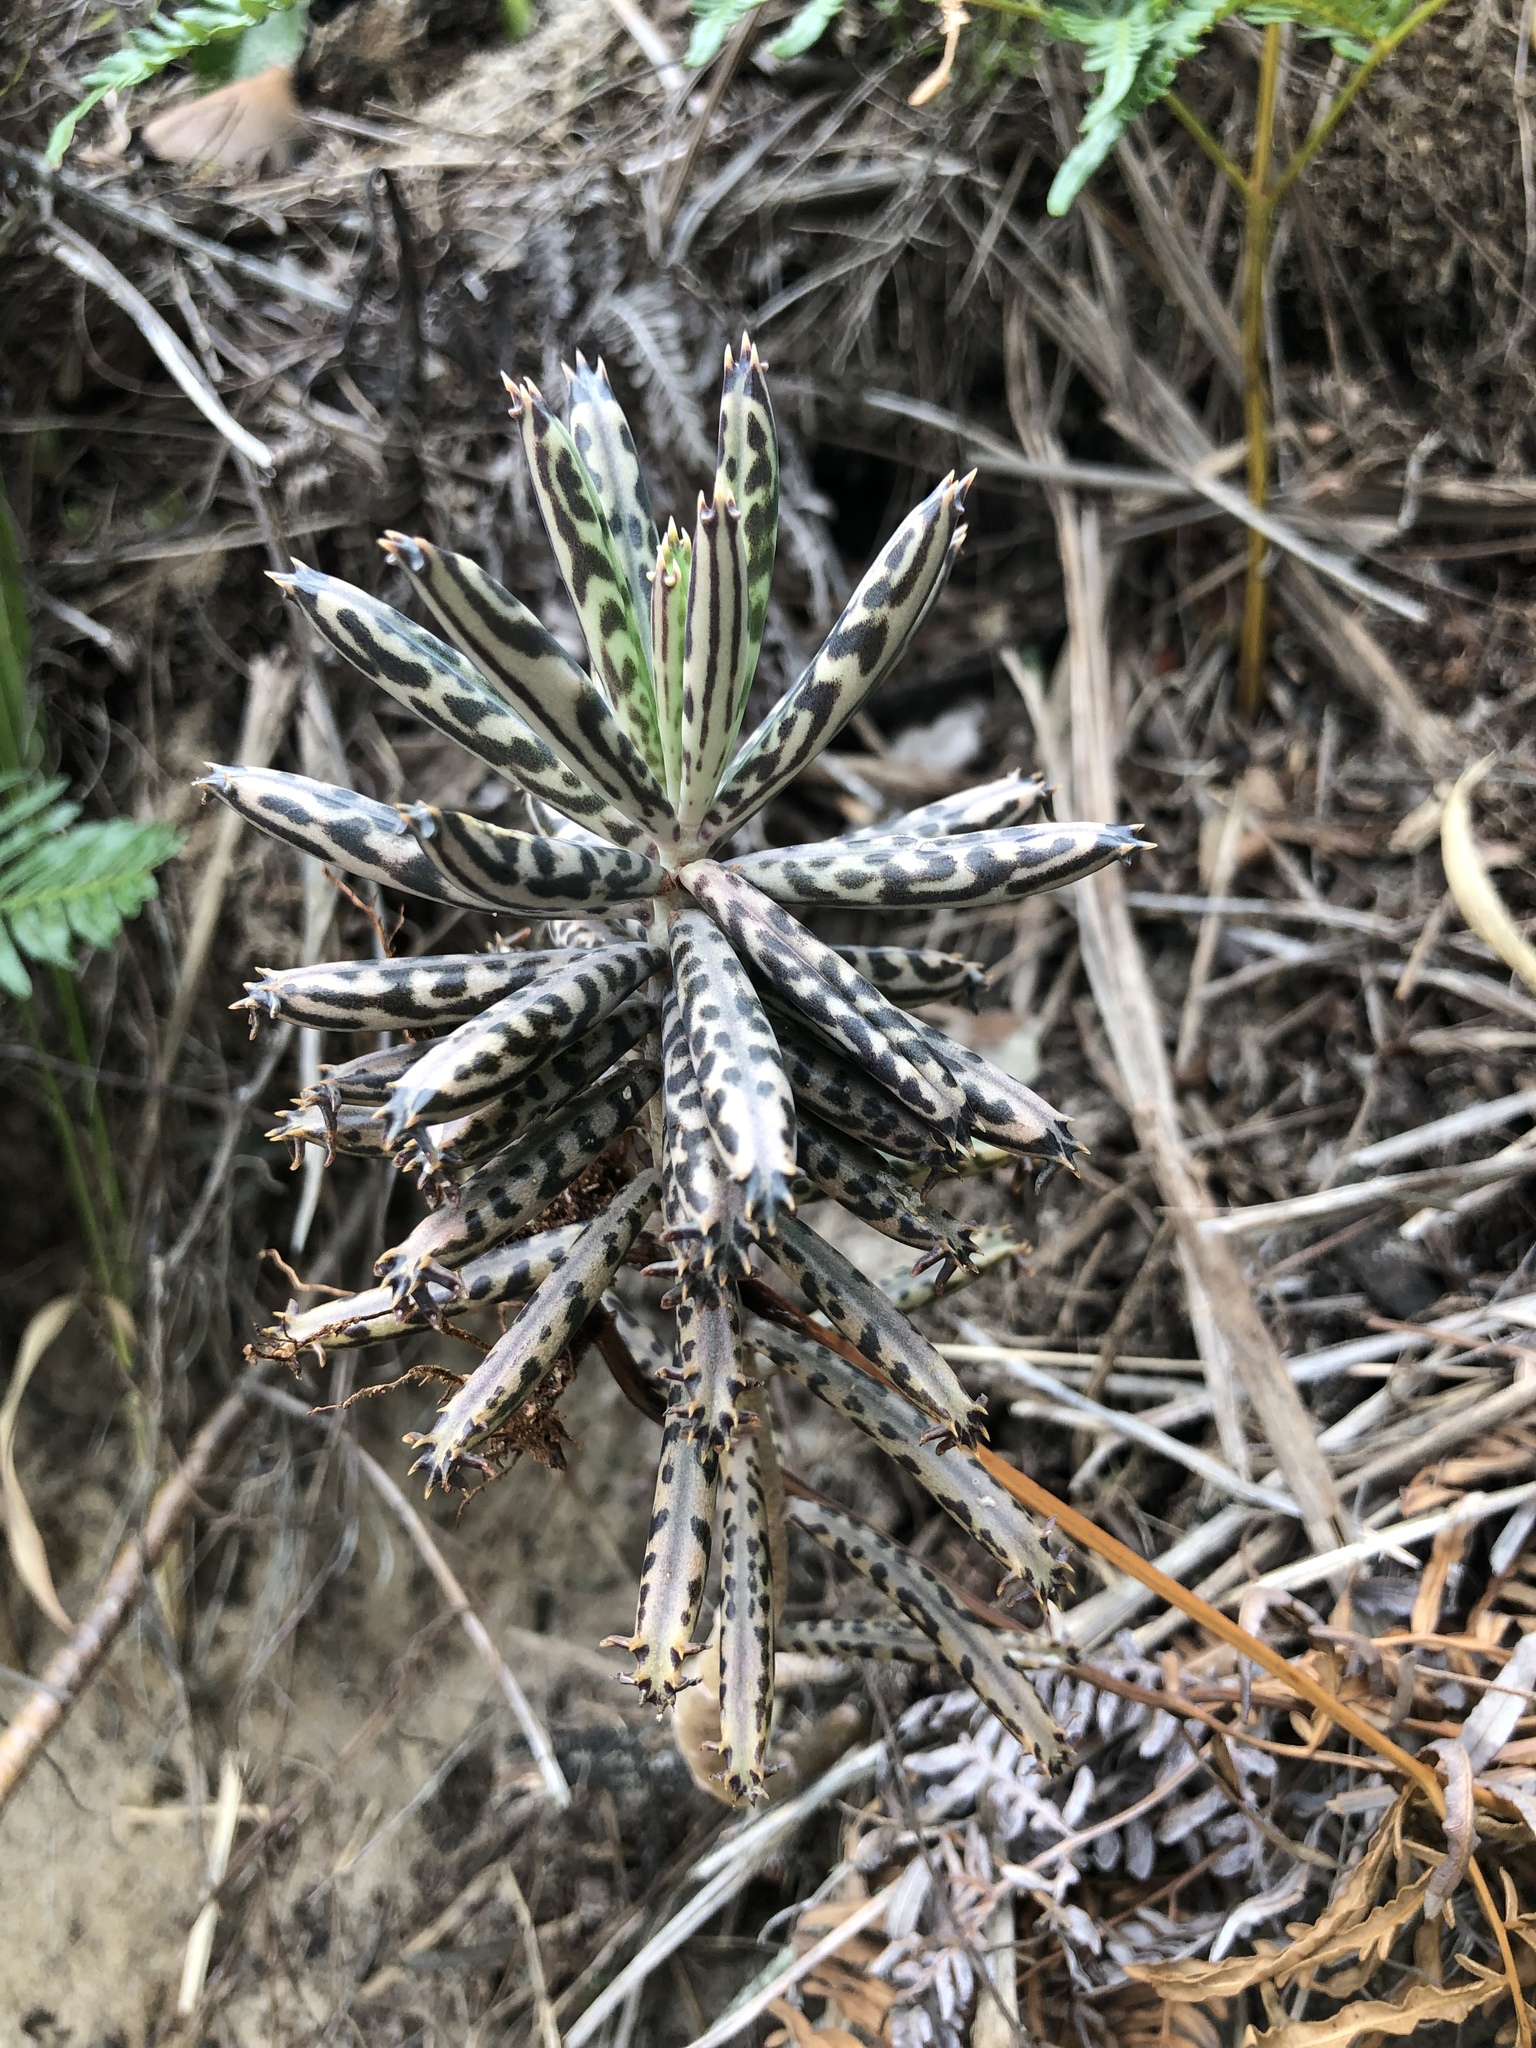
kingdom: Plantae
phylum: Tracheophyta
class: Magnoliopsida
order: Saxifragales
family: Crassulaceae
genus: Kalanchoe
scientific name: Kalanchoe delagoensis
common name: Chandelier plant
